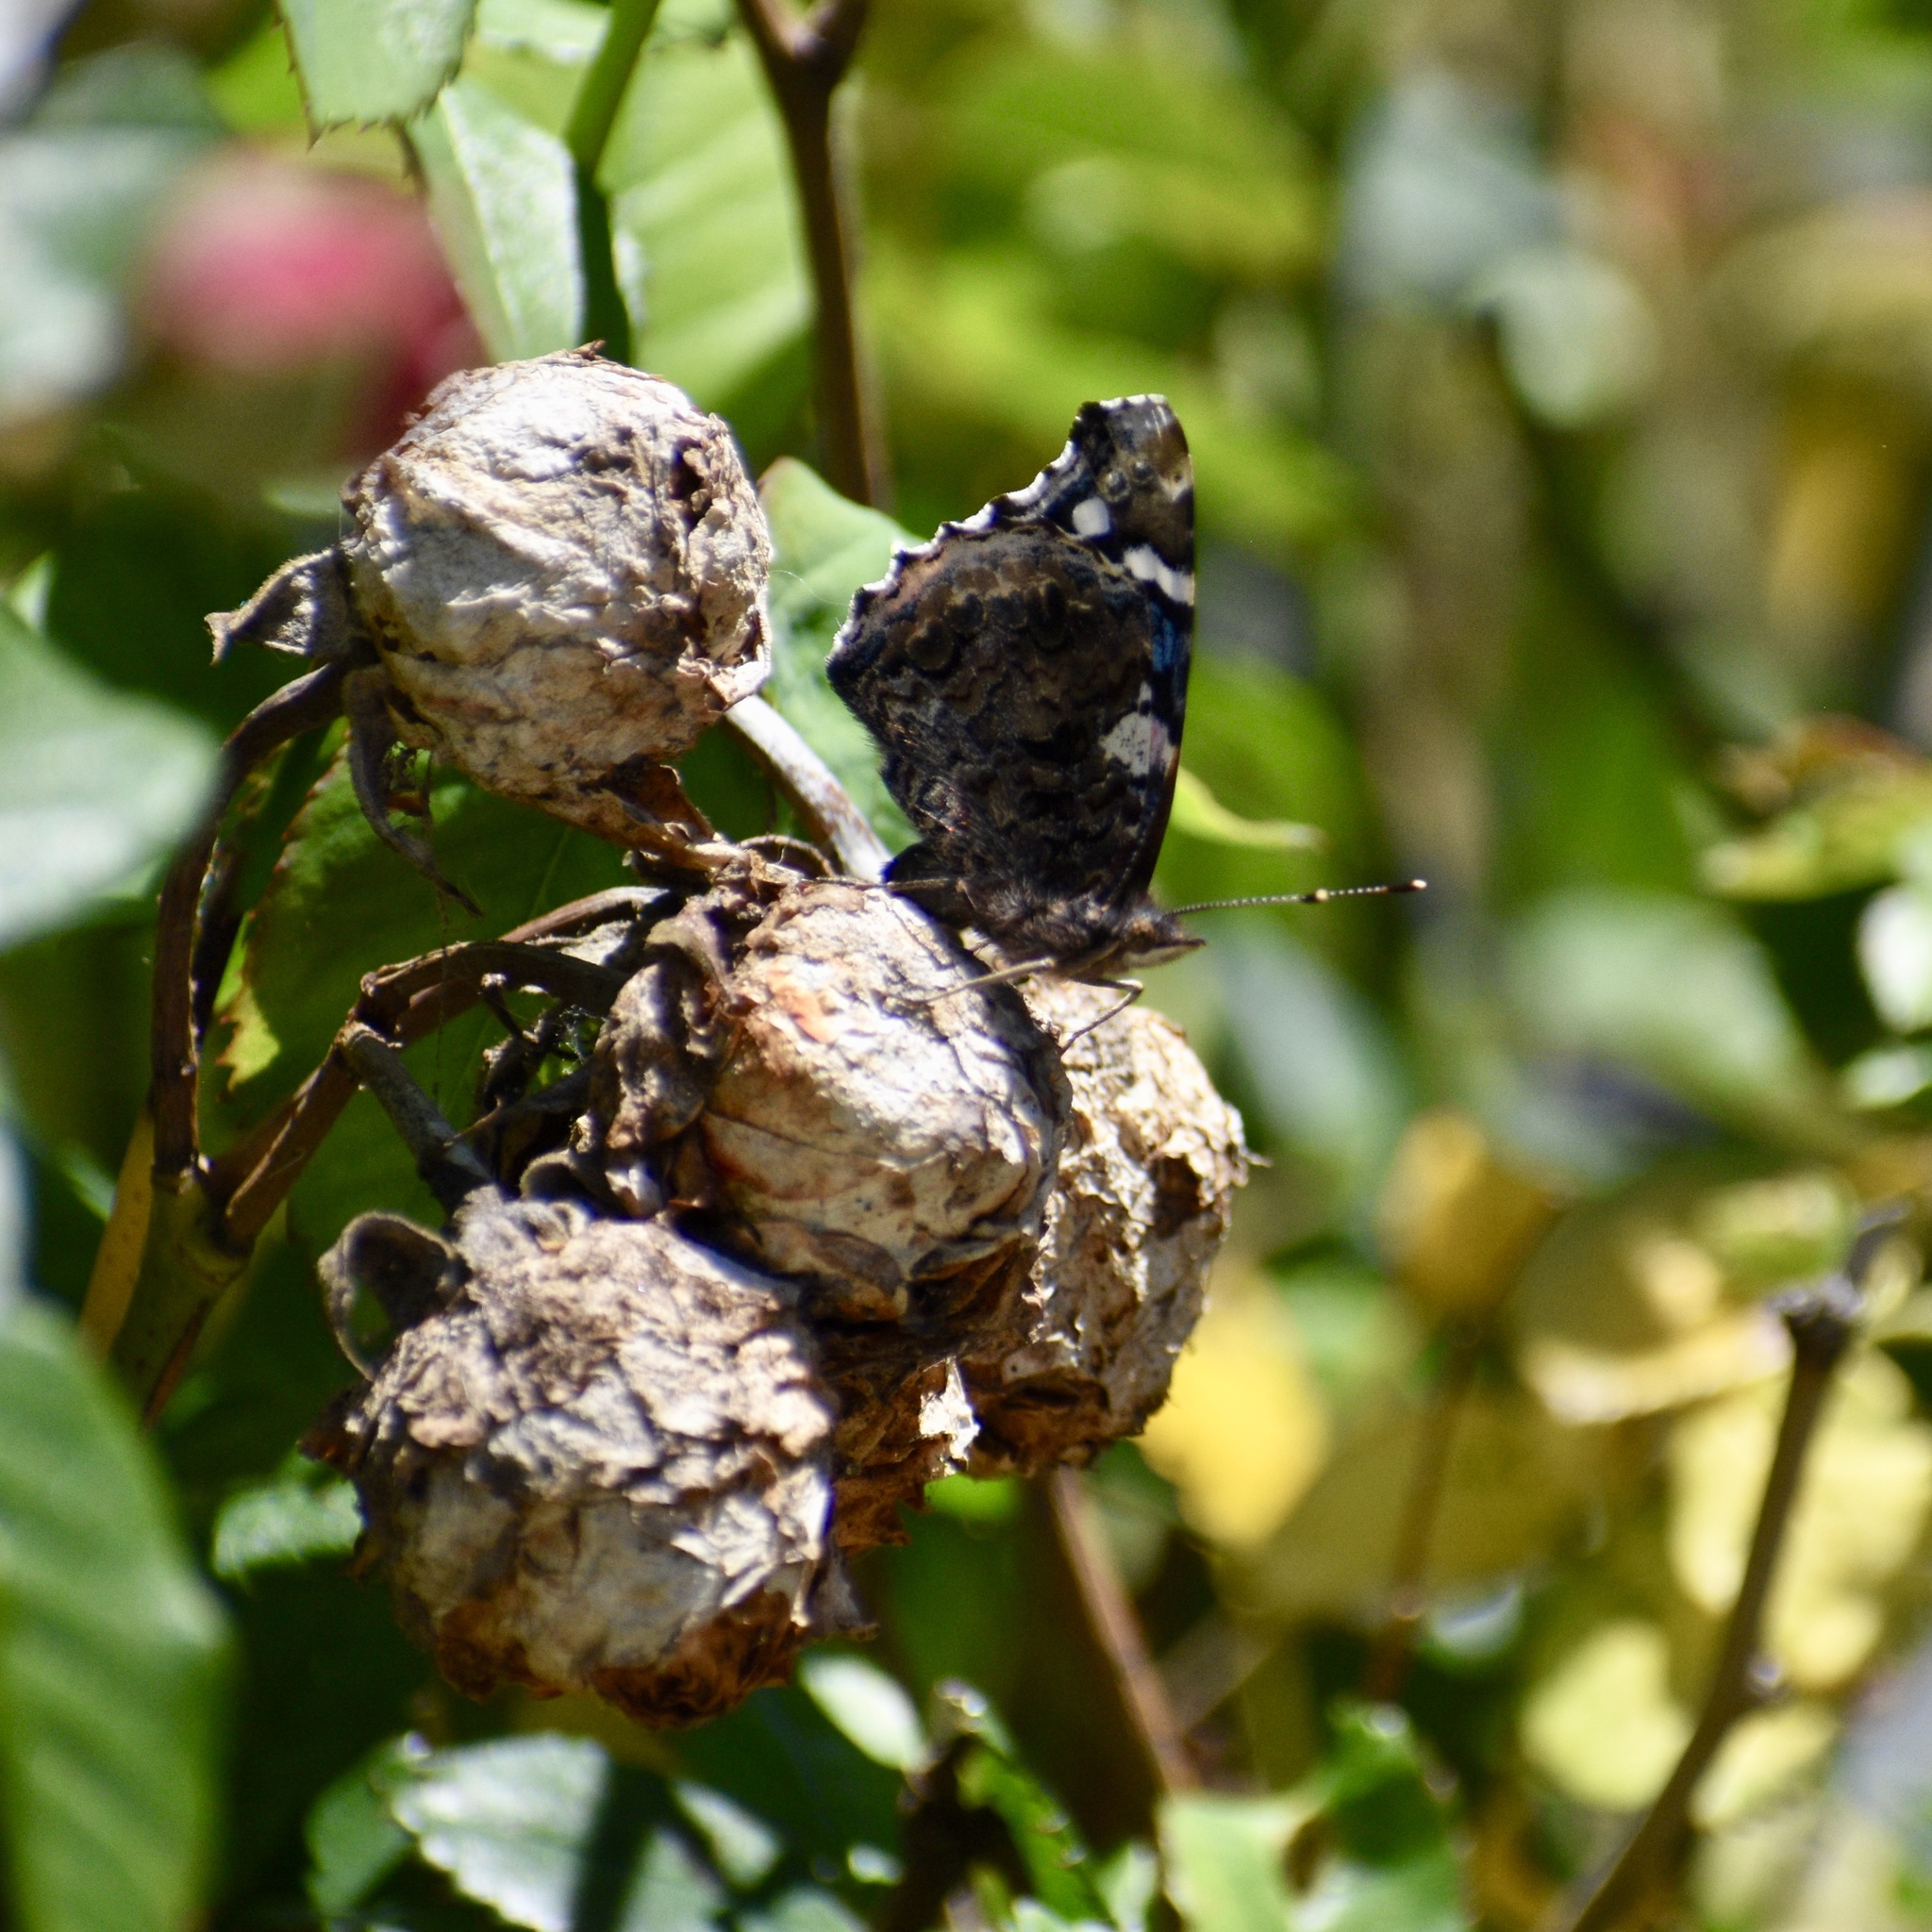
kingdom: Animalia
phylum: Arthropoda
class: Insecta
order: Lepidoptera
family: Nymphalidae
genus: Vanessa
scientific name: Vanessa atalanta
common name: Red admiral
